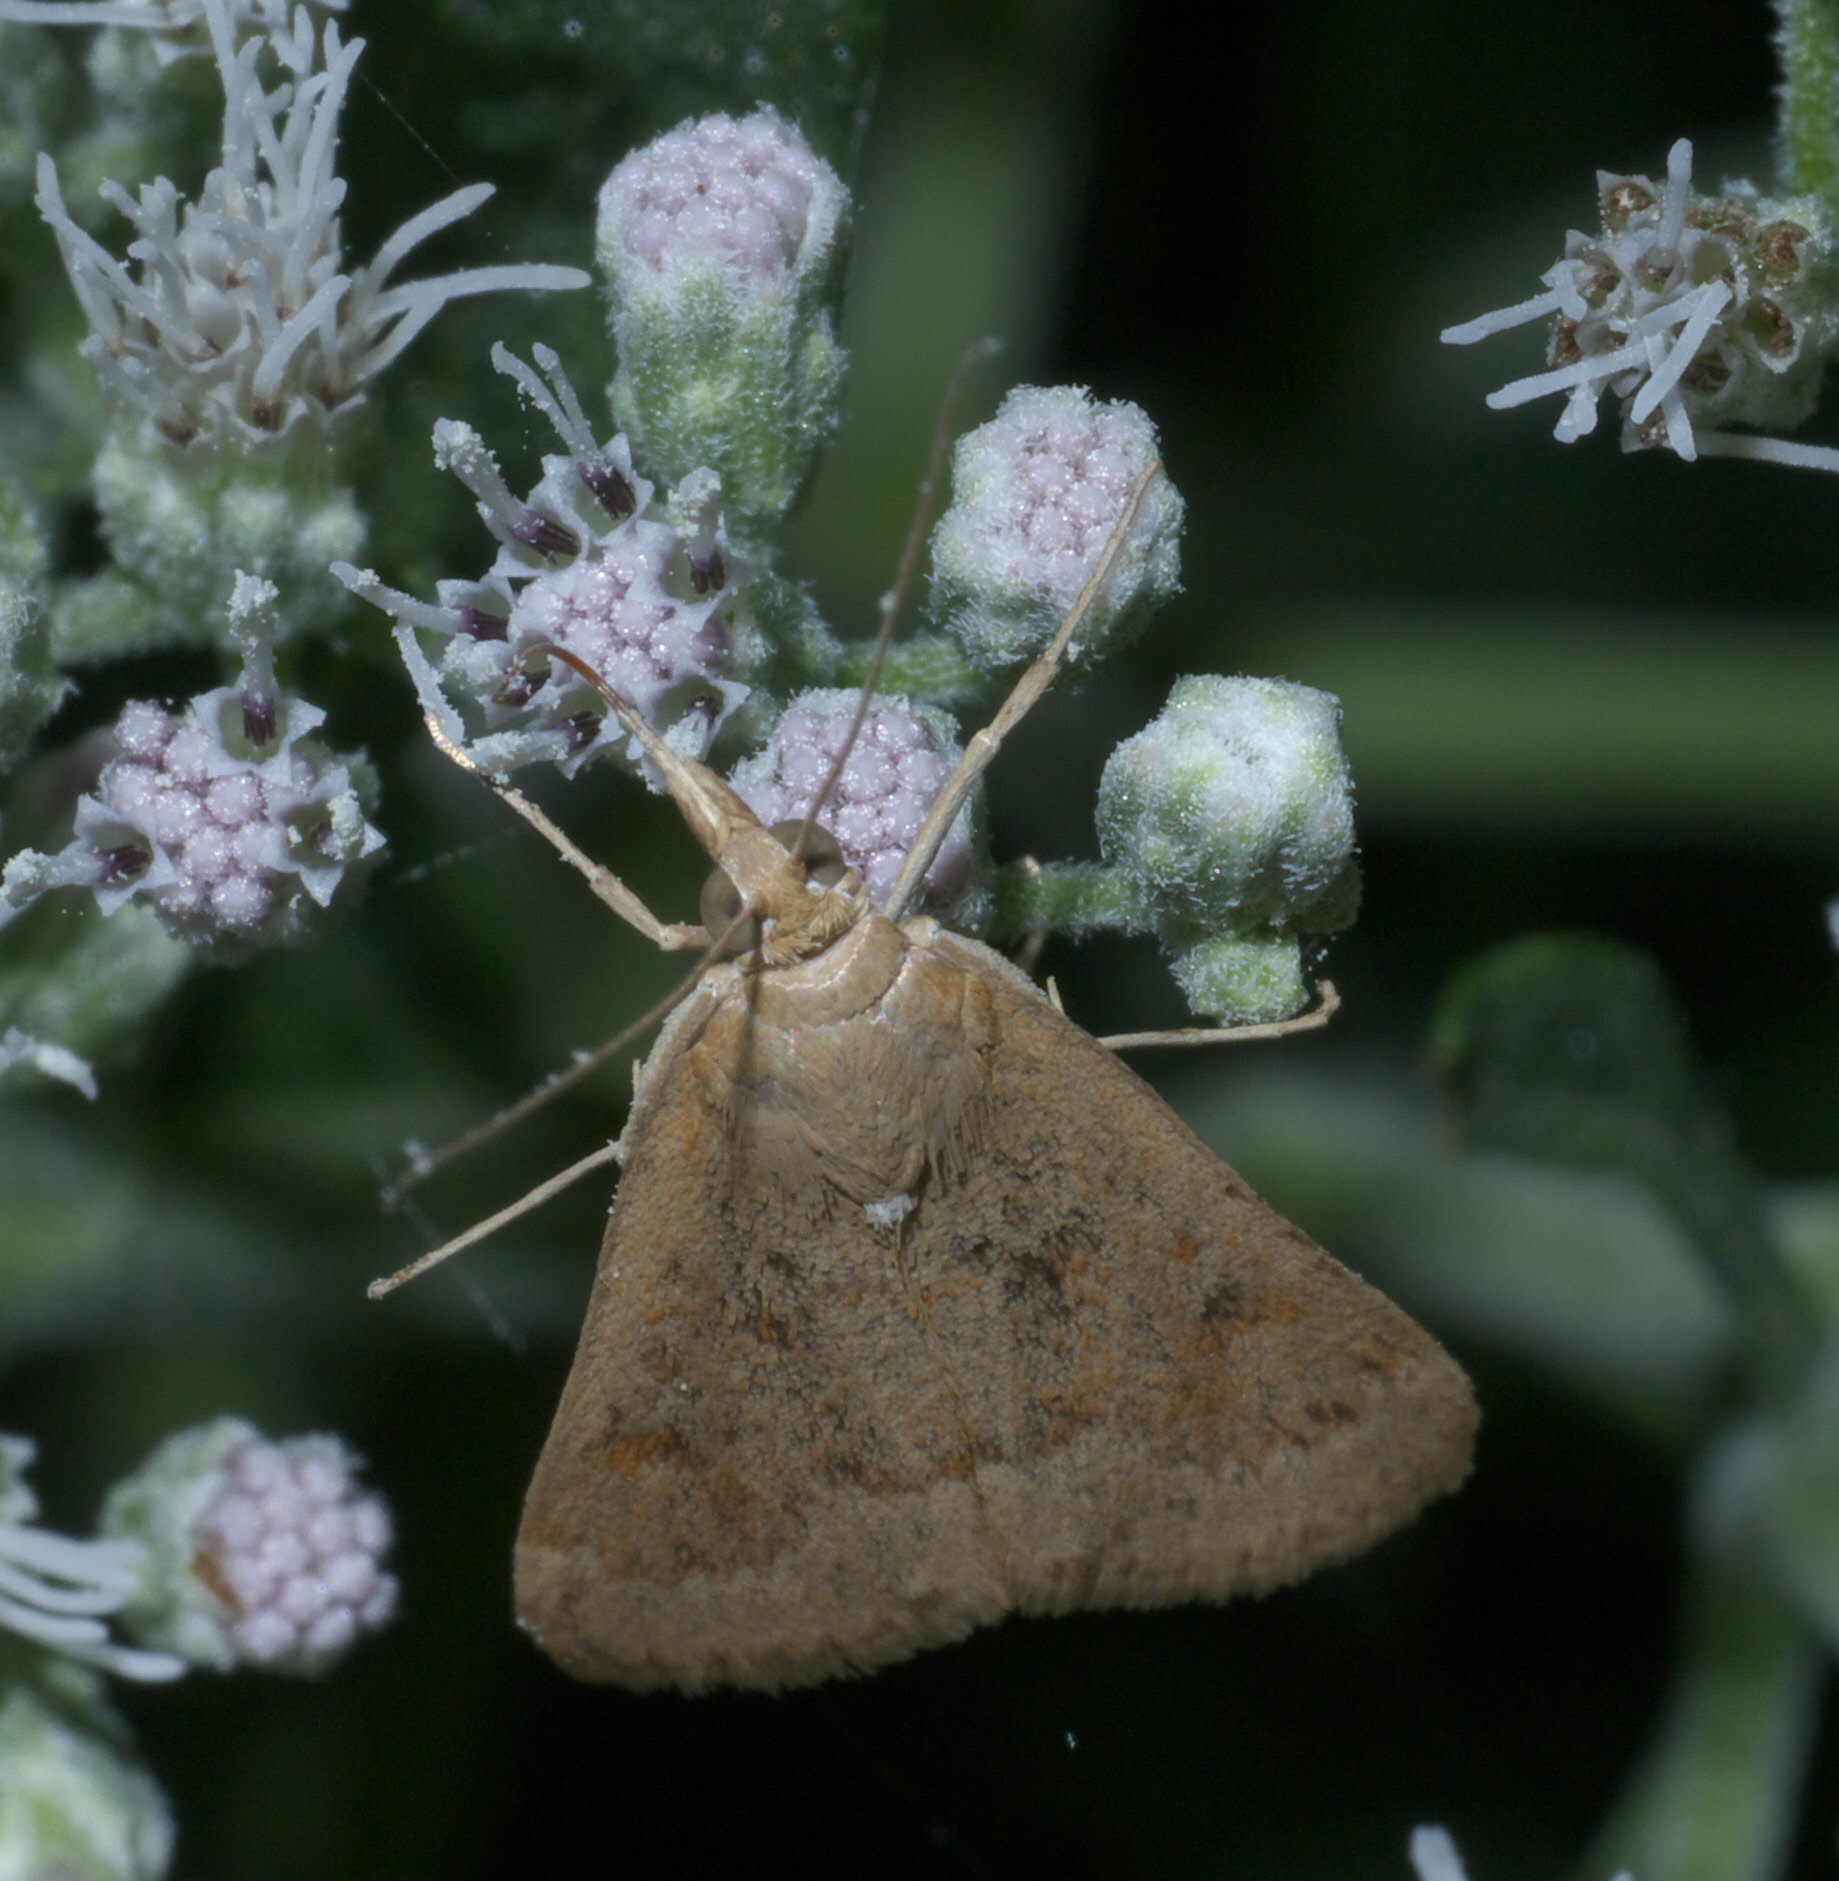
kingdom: Animalia
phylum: Arthropoda
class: Insecta
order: Lepidoptera
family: Crambidae
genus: Achyra
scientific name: Achyra rantalis
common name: Garden webworm
